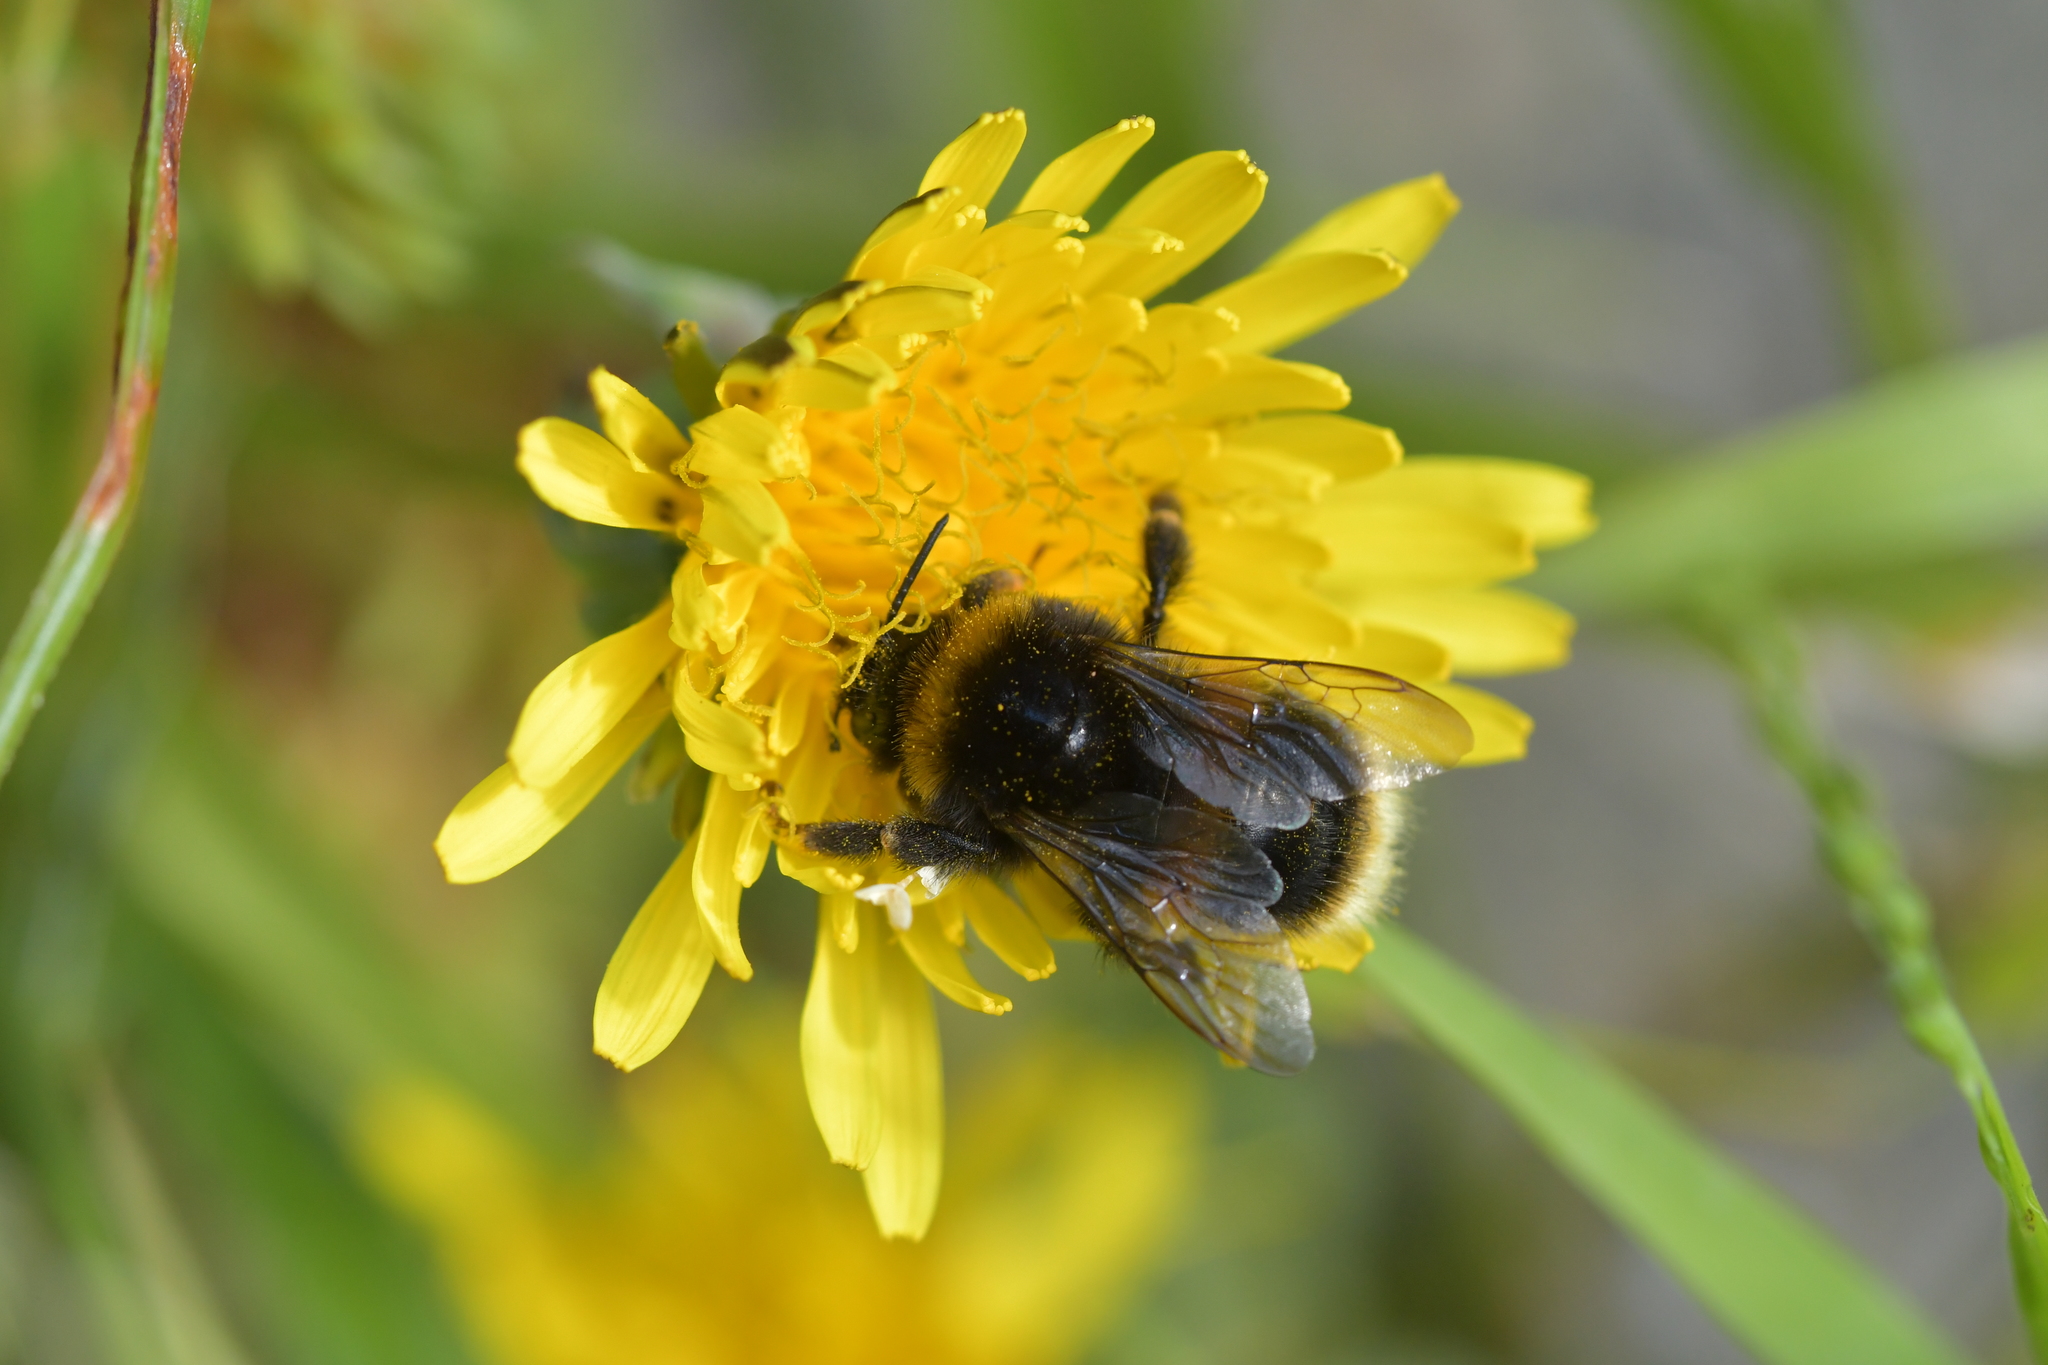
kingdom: Animalia
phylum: Arthropoda
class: Insecta
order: Hymenoptera
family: Apidae
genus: Bombus
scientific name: Bombus terrestris
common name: Buff-tailed bumblebee
